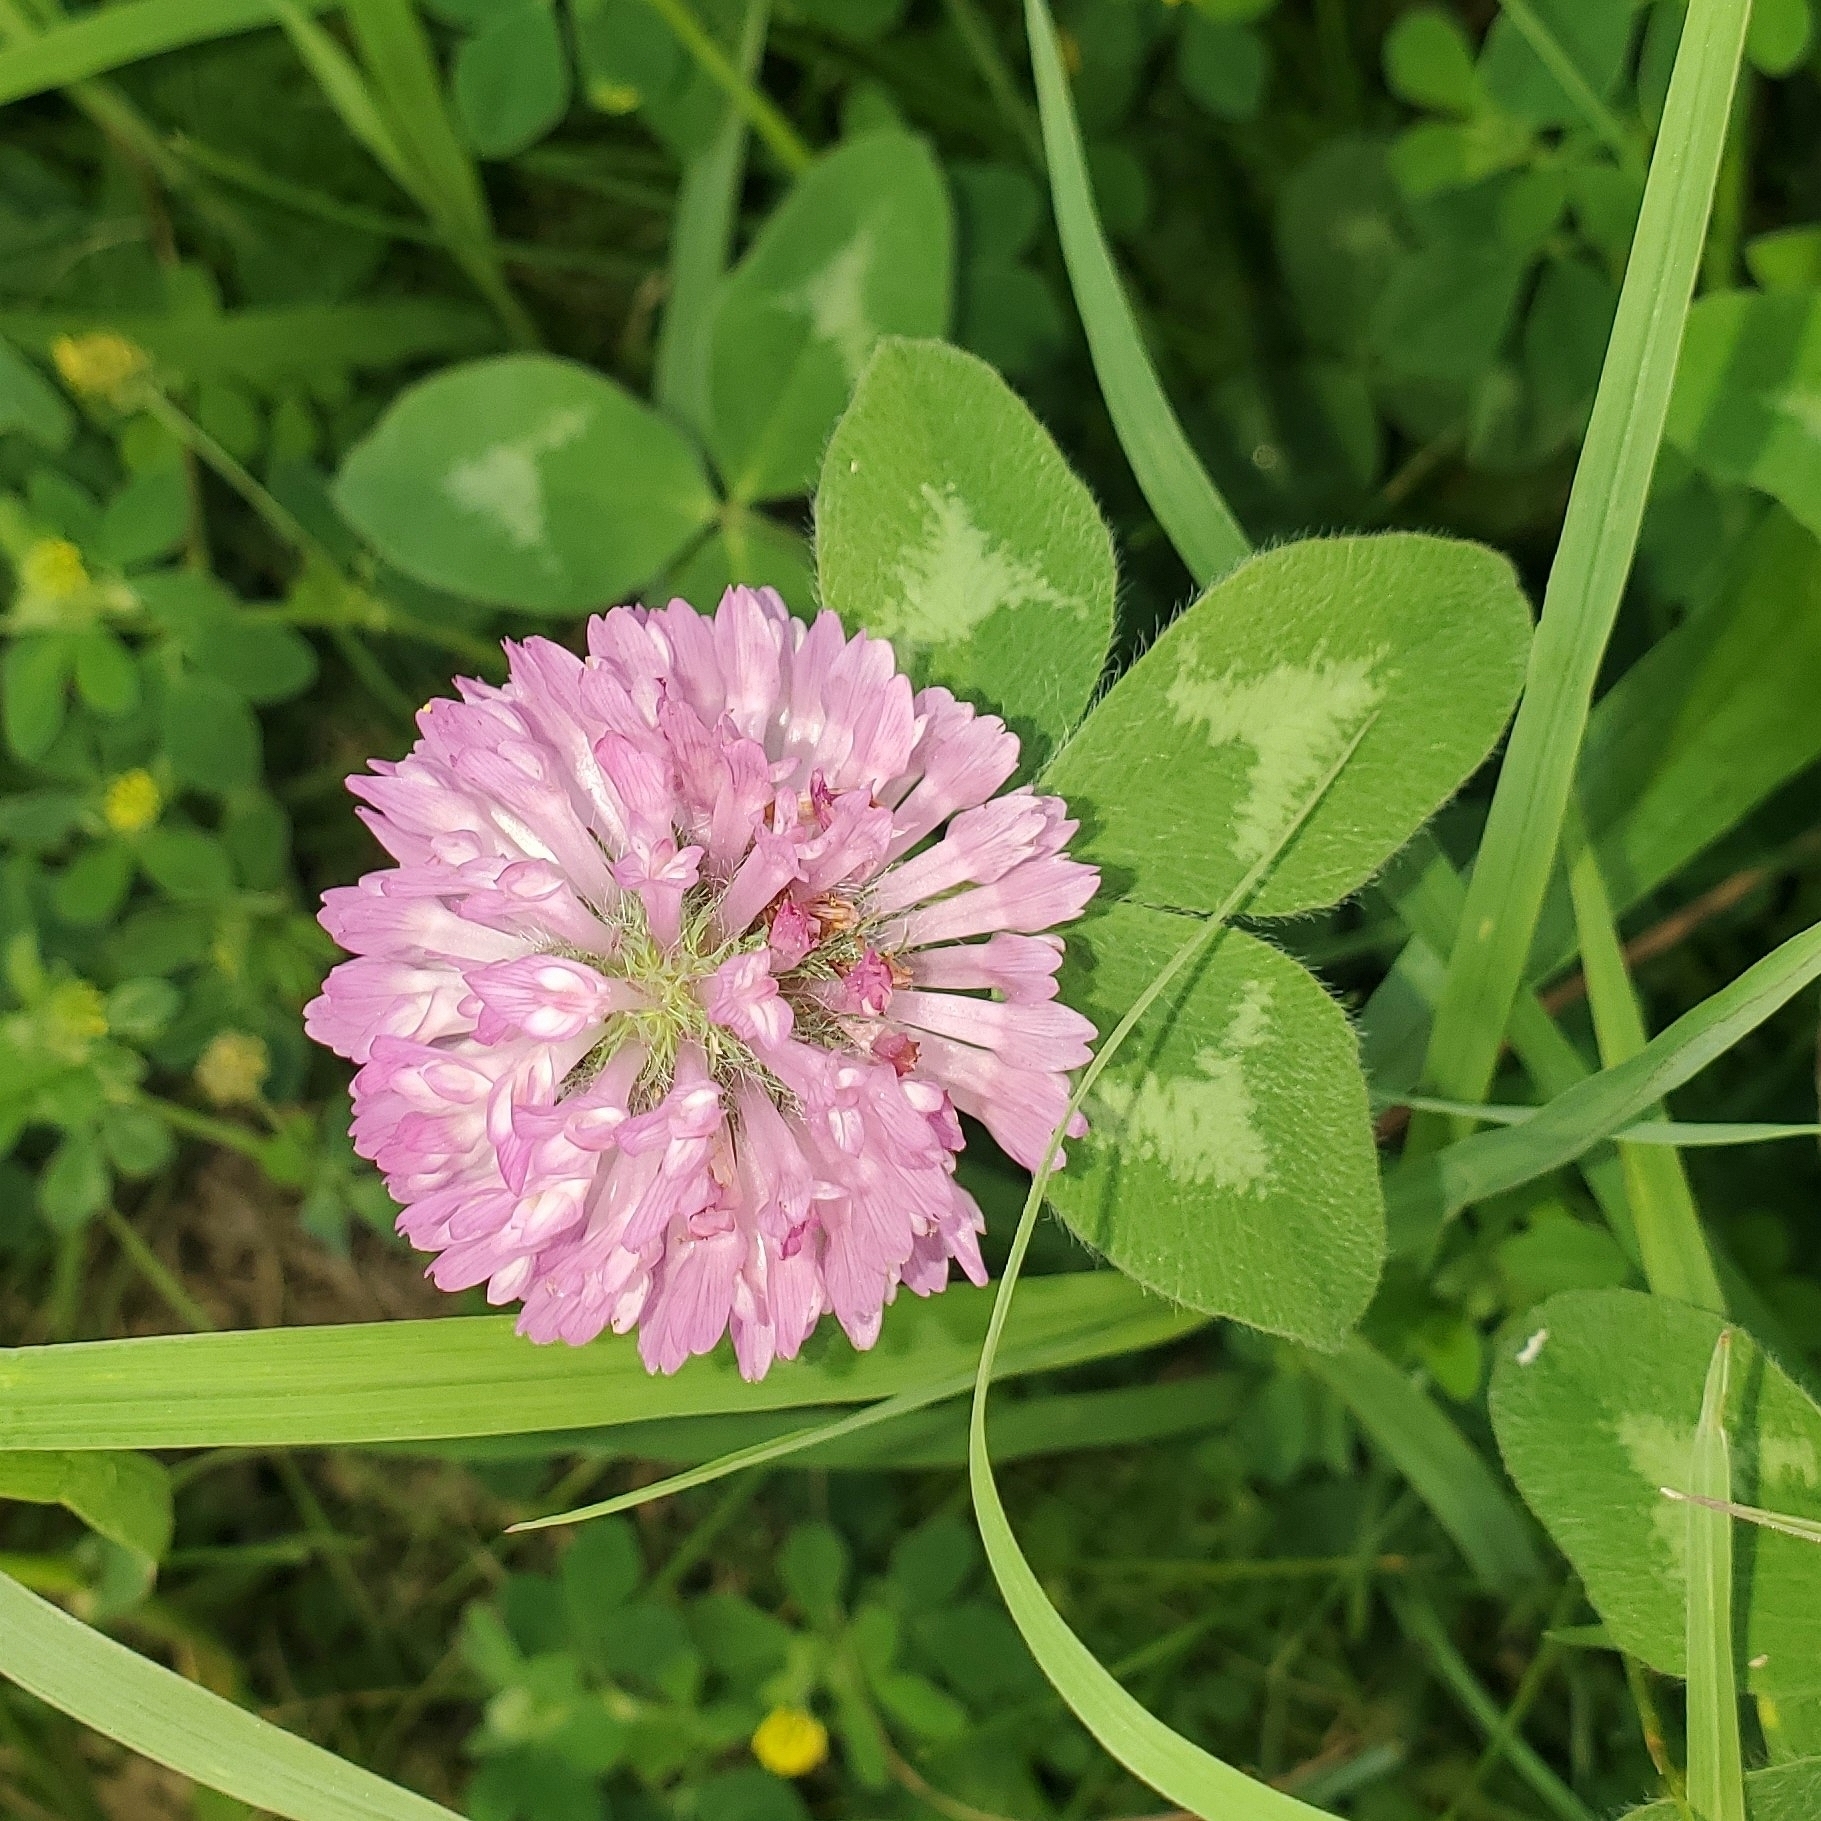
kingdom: Plantae
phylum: Tracheophyta
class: Magnoliopsida
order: Fabales
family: Fabaceae
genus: Trifolium
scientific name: Trifolium pratense
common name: Red clover
